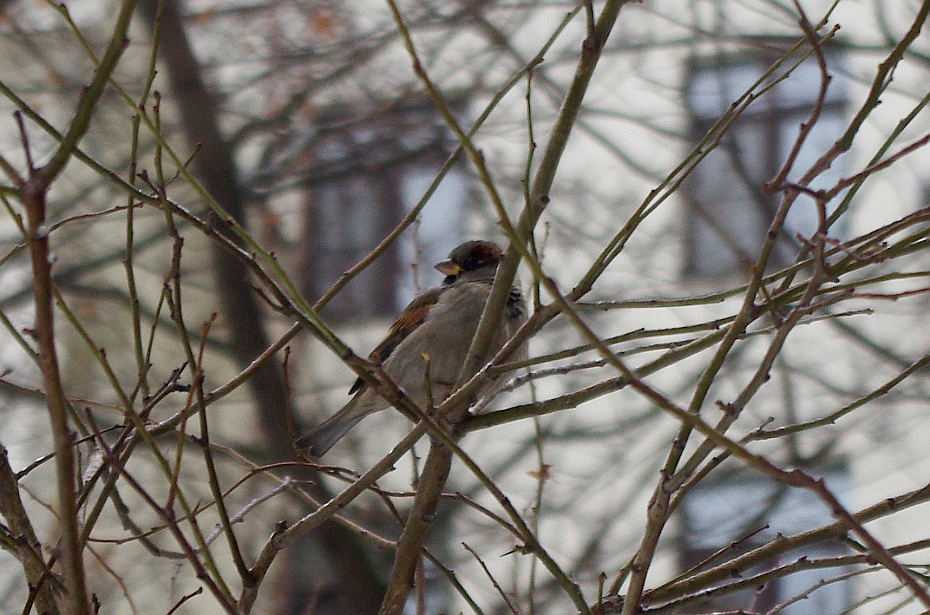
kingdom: Animalia
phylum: Chordata
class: Aves
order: Passeriformes
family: Passeridae
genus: Passer
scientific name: Passer domesticus
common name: House sparrow
